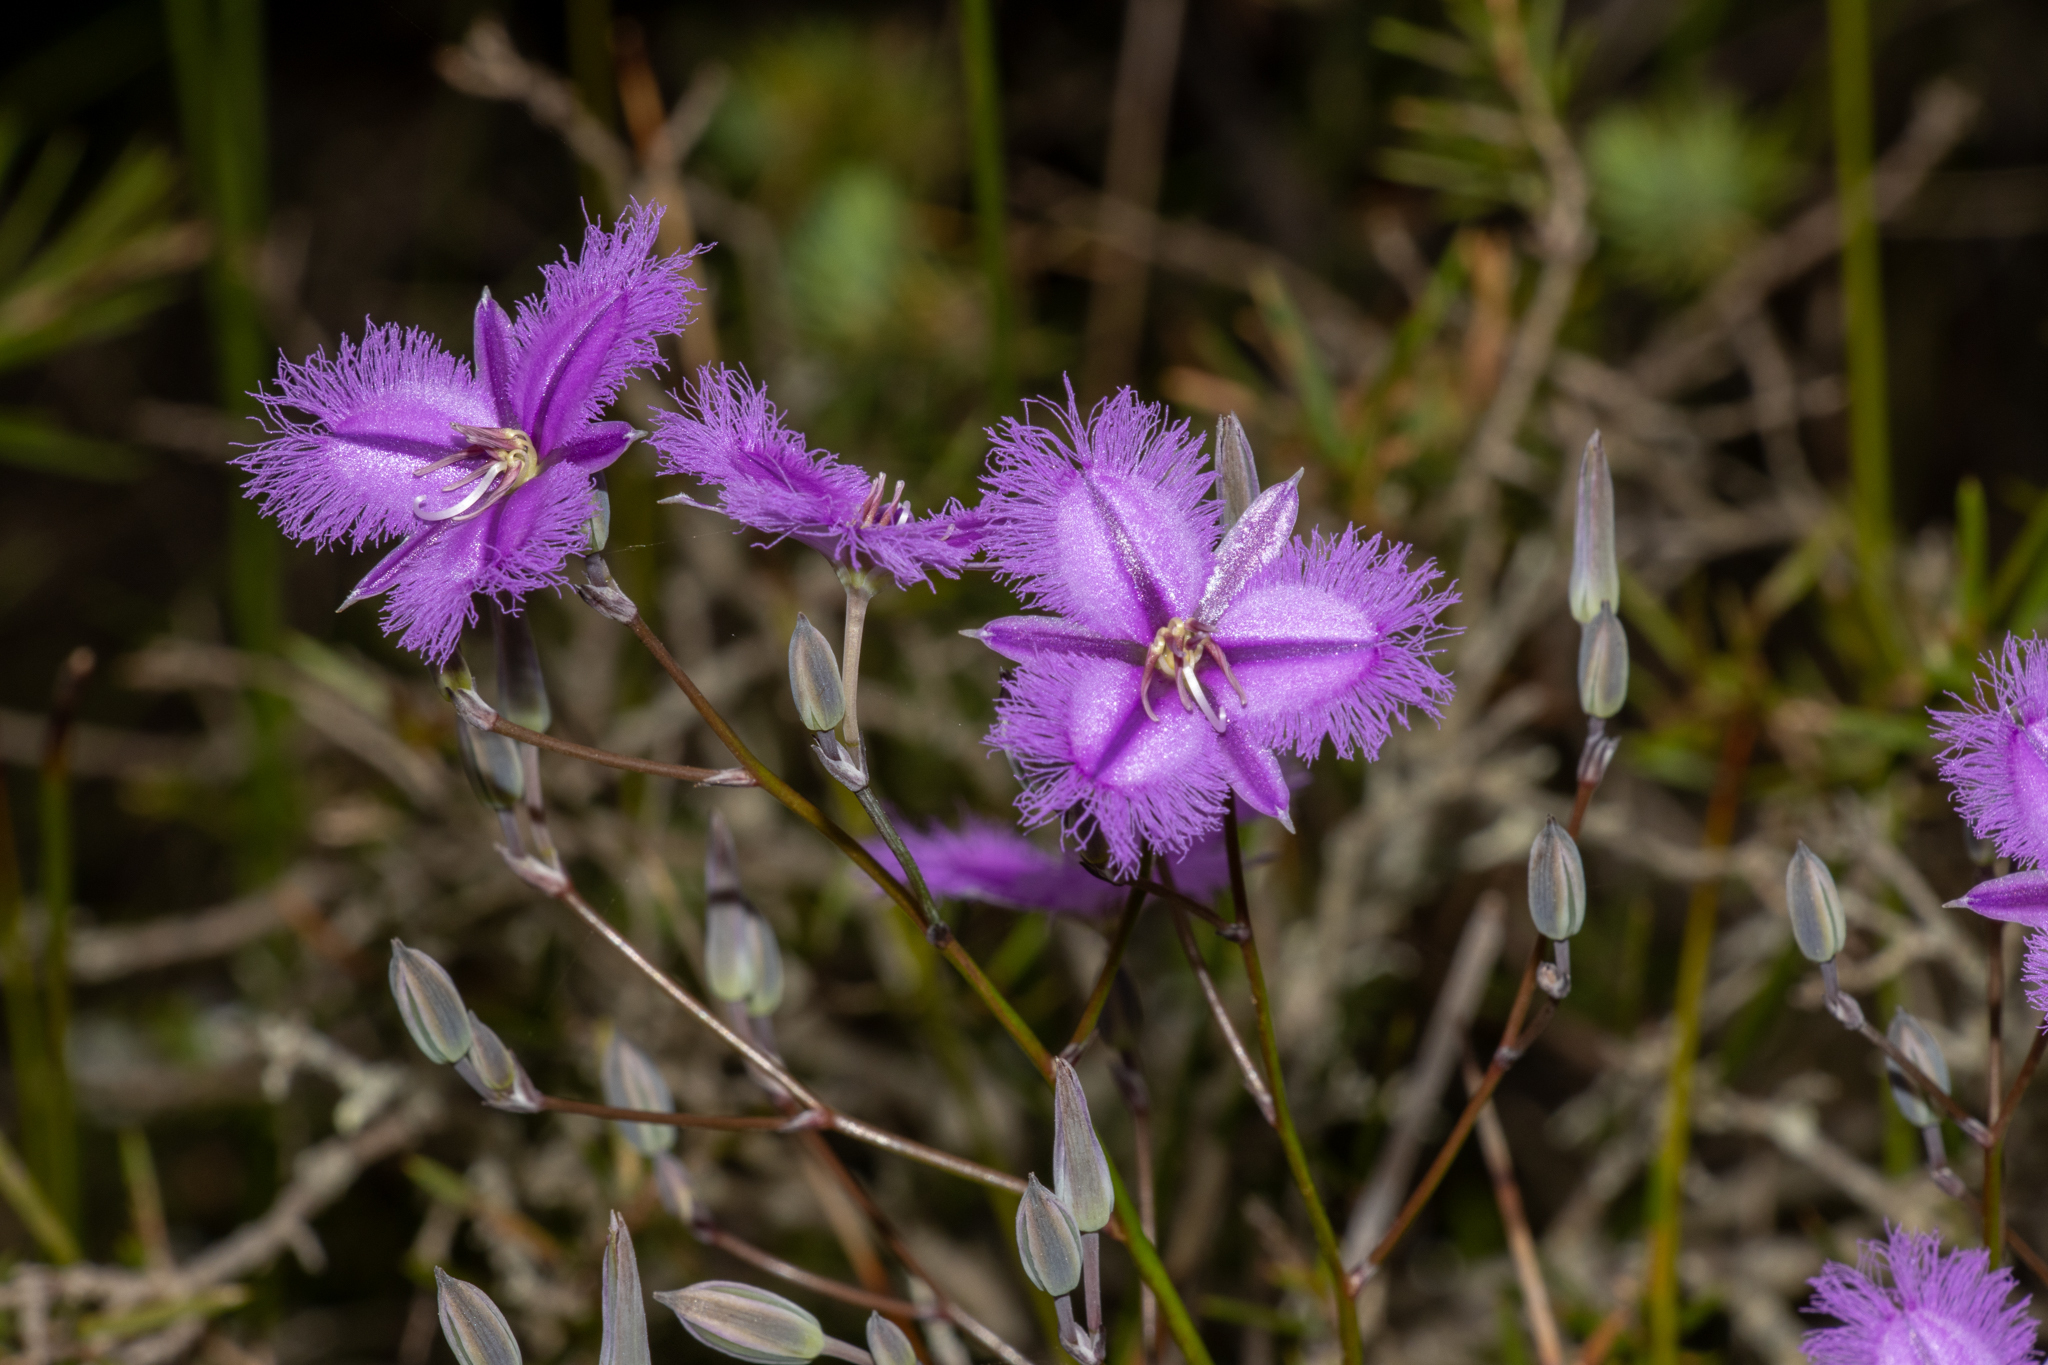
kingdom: Plantae
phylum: Tracheophyta
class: Liliopsida
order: Asparagales
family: Asparagaceae
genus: Thysanotus
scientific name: Thysanotus tuberosus
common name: Common fringed-lily
